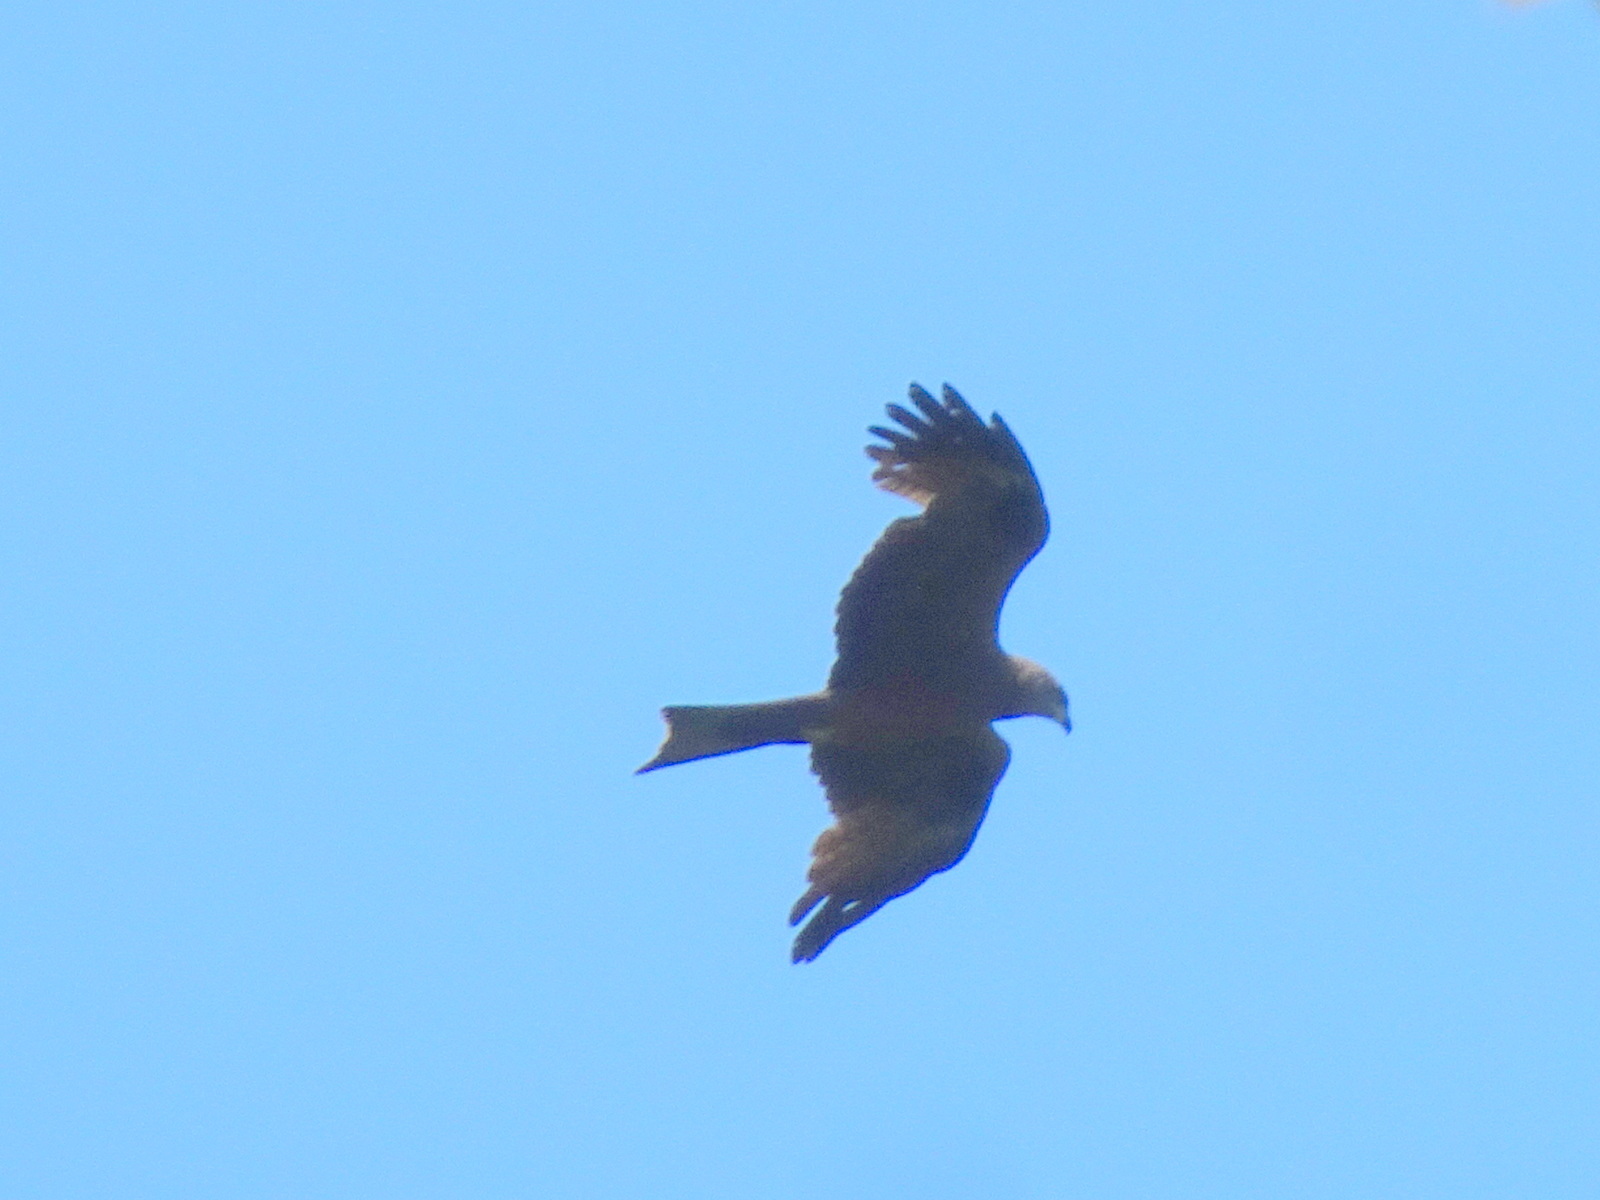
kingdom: Animalia
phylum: Chordata
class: Aves
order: Accipitriformes
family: Accipitridae
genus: Milvus
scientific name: Milvus migrans
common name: Black kite
